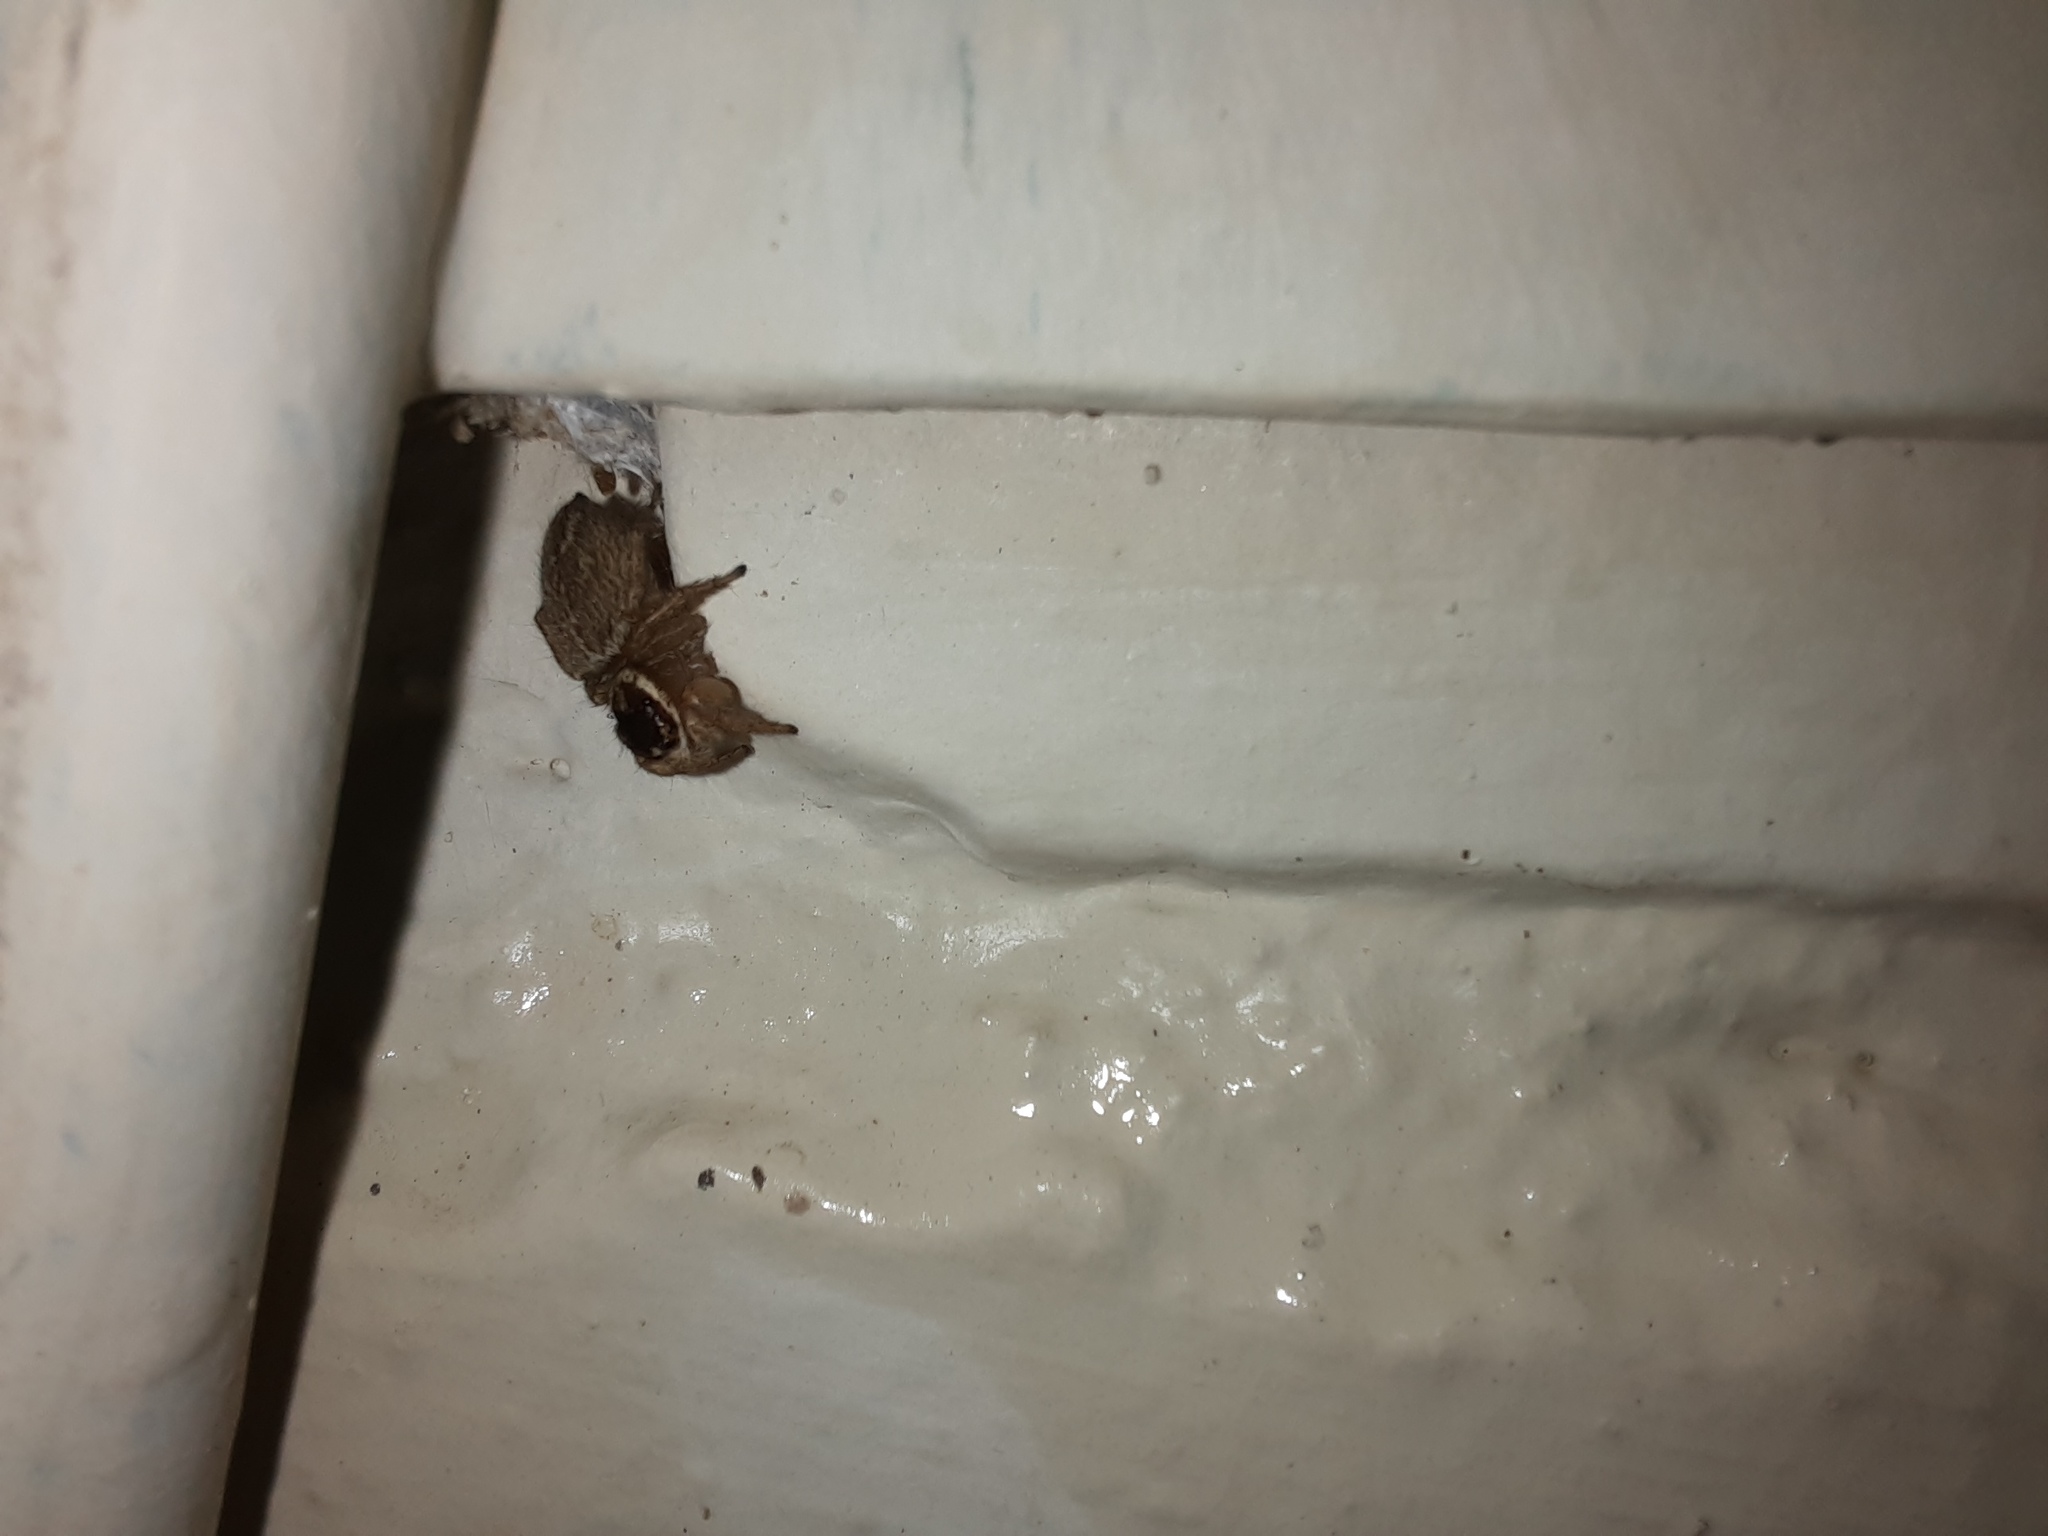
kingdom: Animalia
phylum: Arthropoda
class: Arachnida
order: Araneae
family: Salticidae
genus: Maratus
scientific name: Maratus griseus
